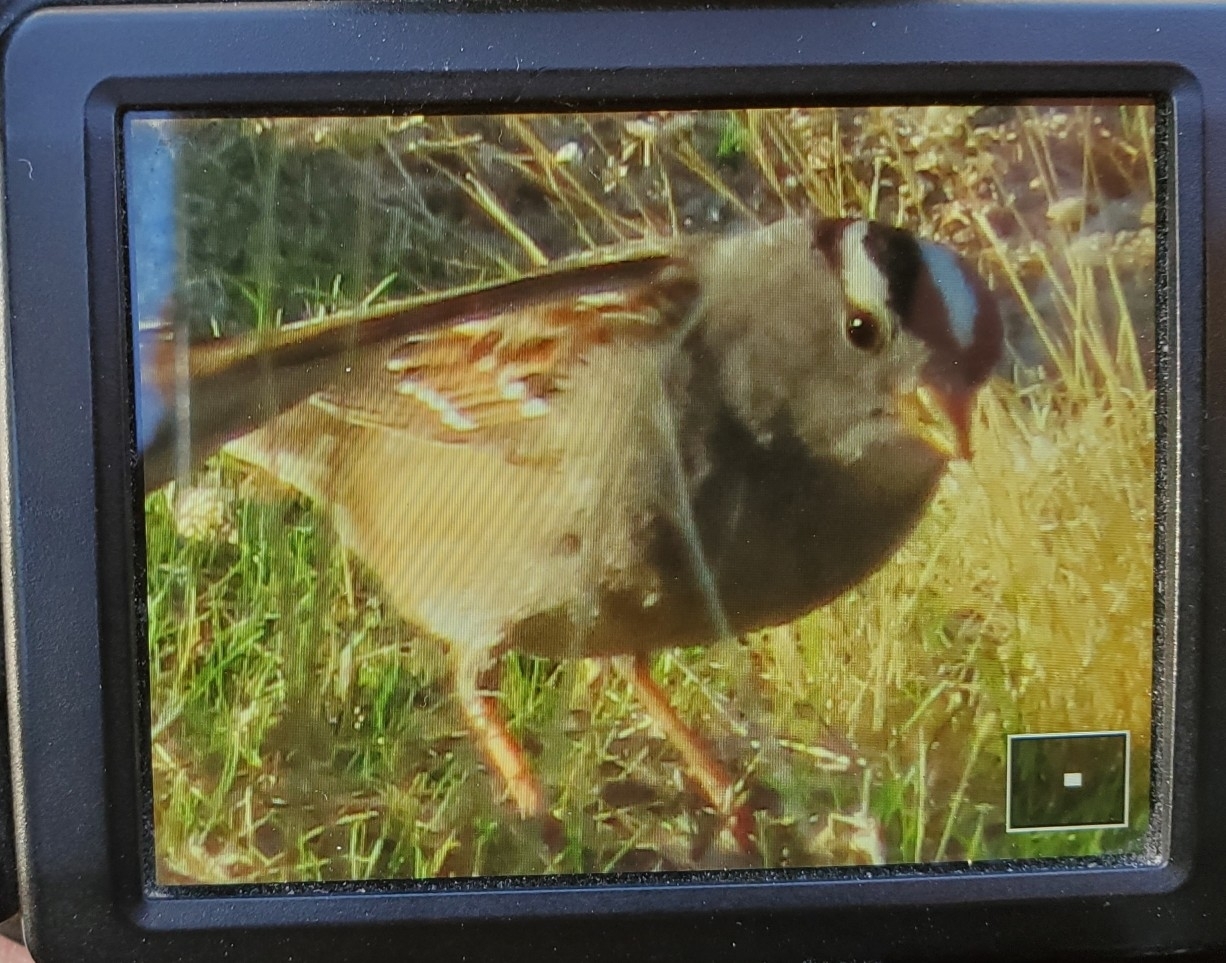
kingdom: Animalia
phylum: Chordata
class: Aves
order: Passeriformes
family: Passerellidae
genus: Zonotrichia
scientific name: Zonotrichia leucophrys
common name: White-crowned sparrow
